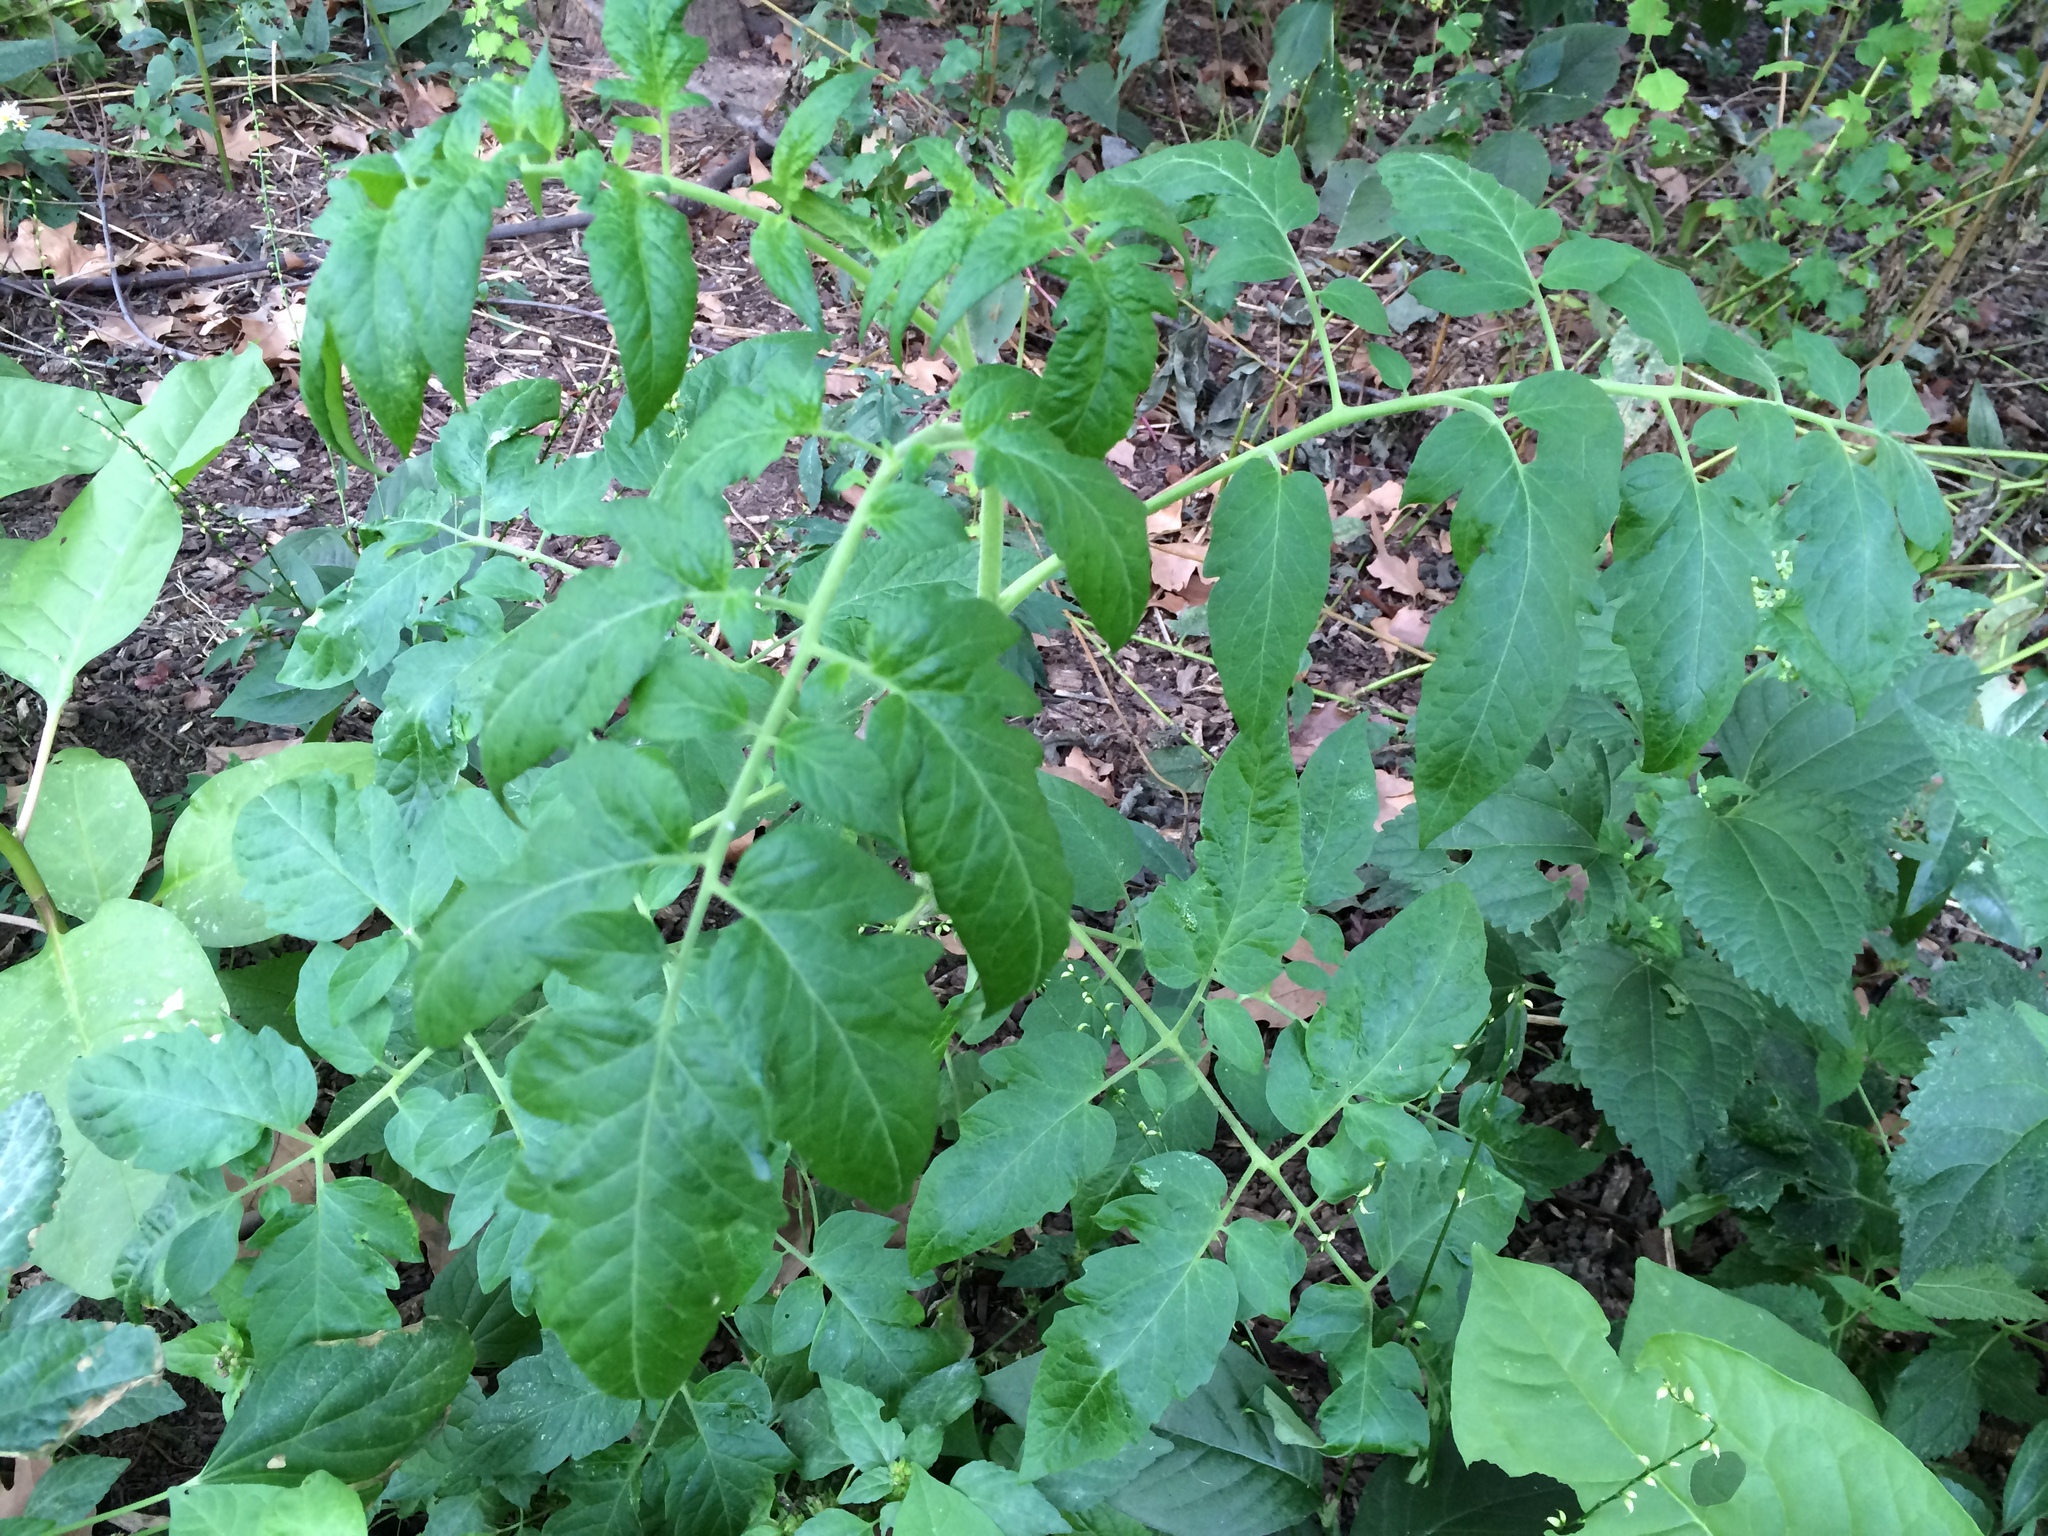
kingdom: Plantae
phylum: Tracheophyta
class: Magnoliopsida
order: Solanales
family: Solanaceae
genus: Solanum
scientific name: Solanum lycopersicum
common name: Garden tomato
